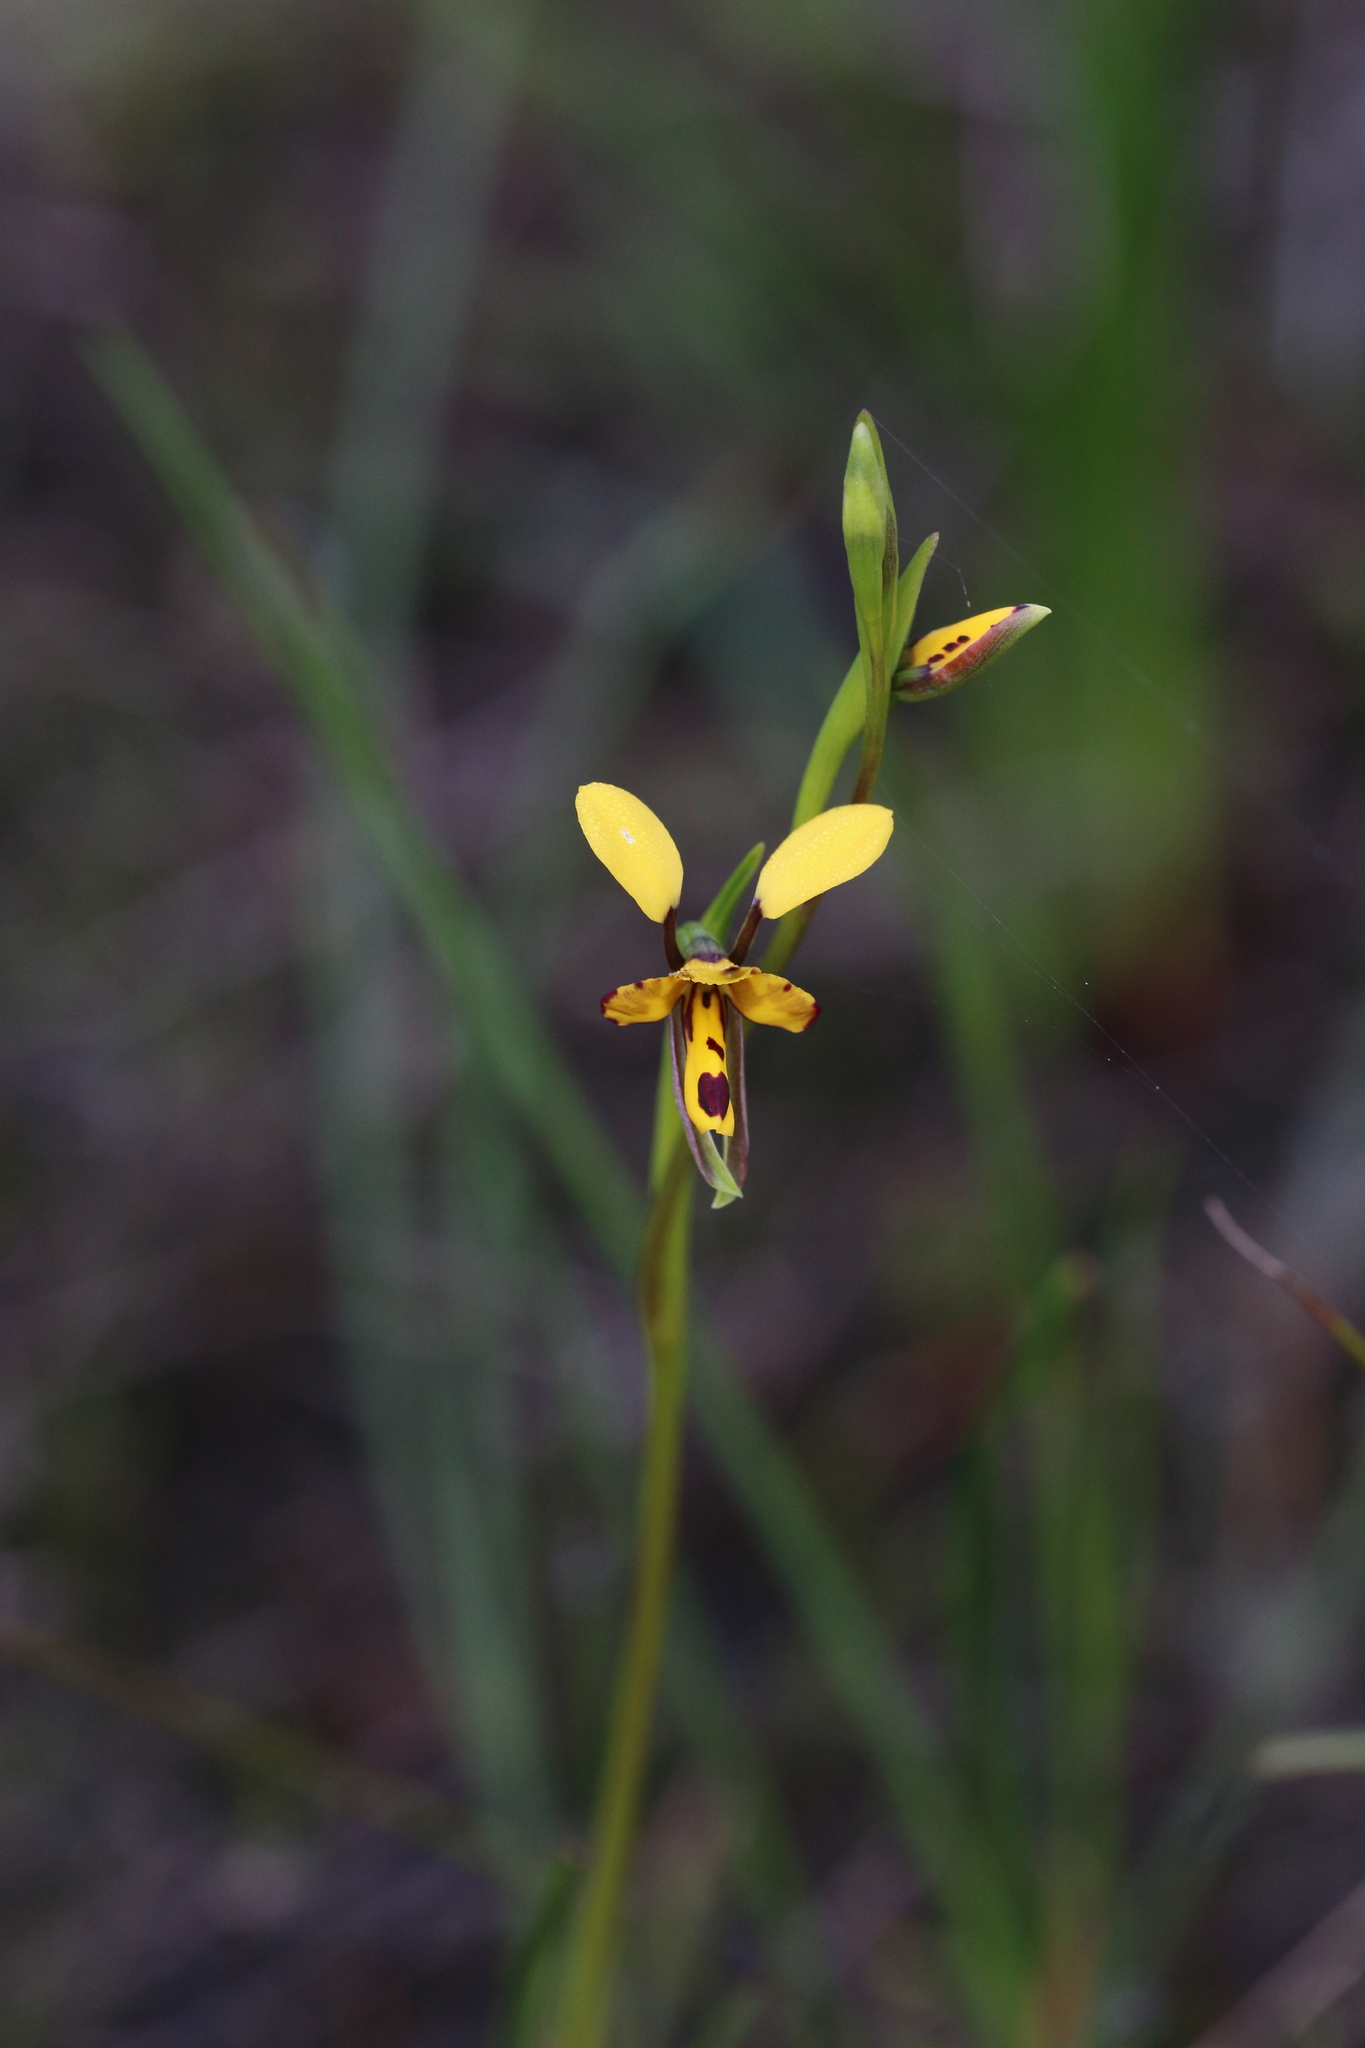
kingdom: Plantae
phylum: Tracheophyta
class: Liliopsida
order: Asparagales
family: Orchidaceae
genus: Diuris
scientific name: Diuris laxiflora
